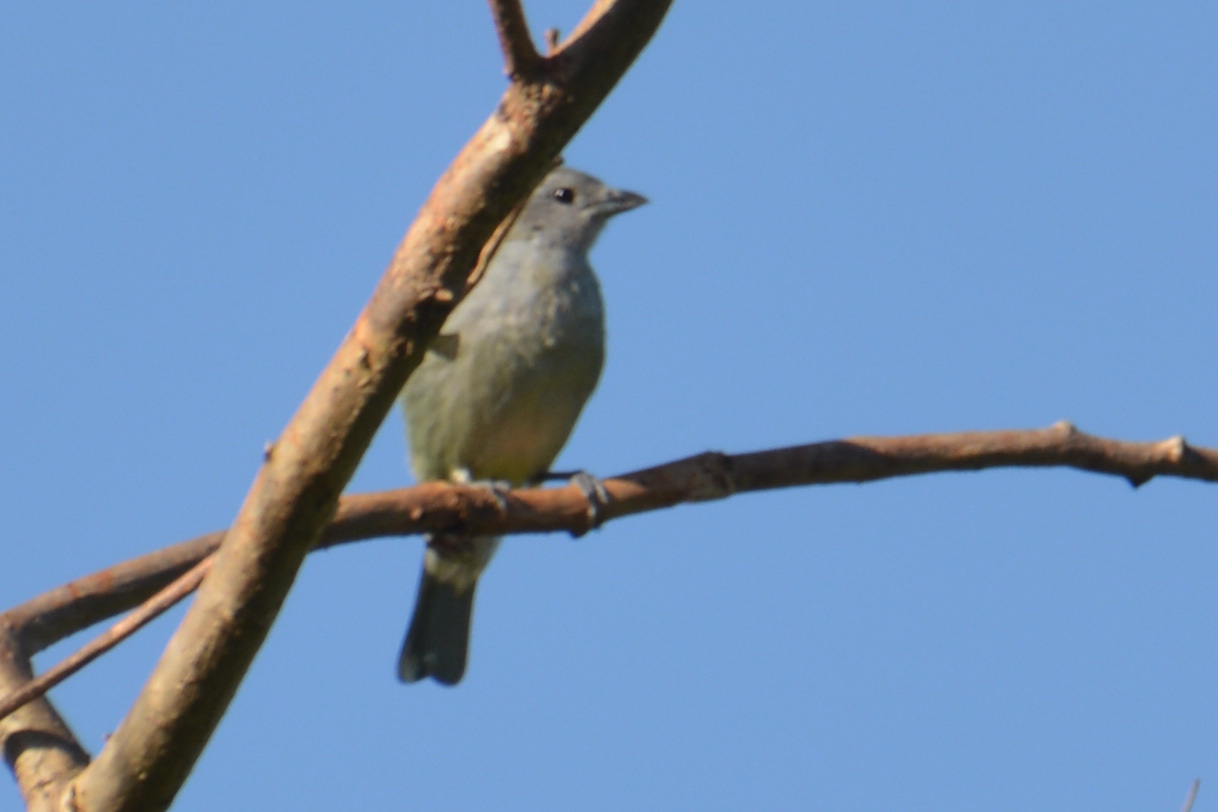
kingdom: Animalia
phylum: Chordata
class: Aves
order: Passeriformes
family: Thraupidae
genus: Thraupis
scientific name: Thraupis sayaca
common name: Sayaca tanager
